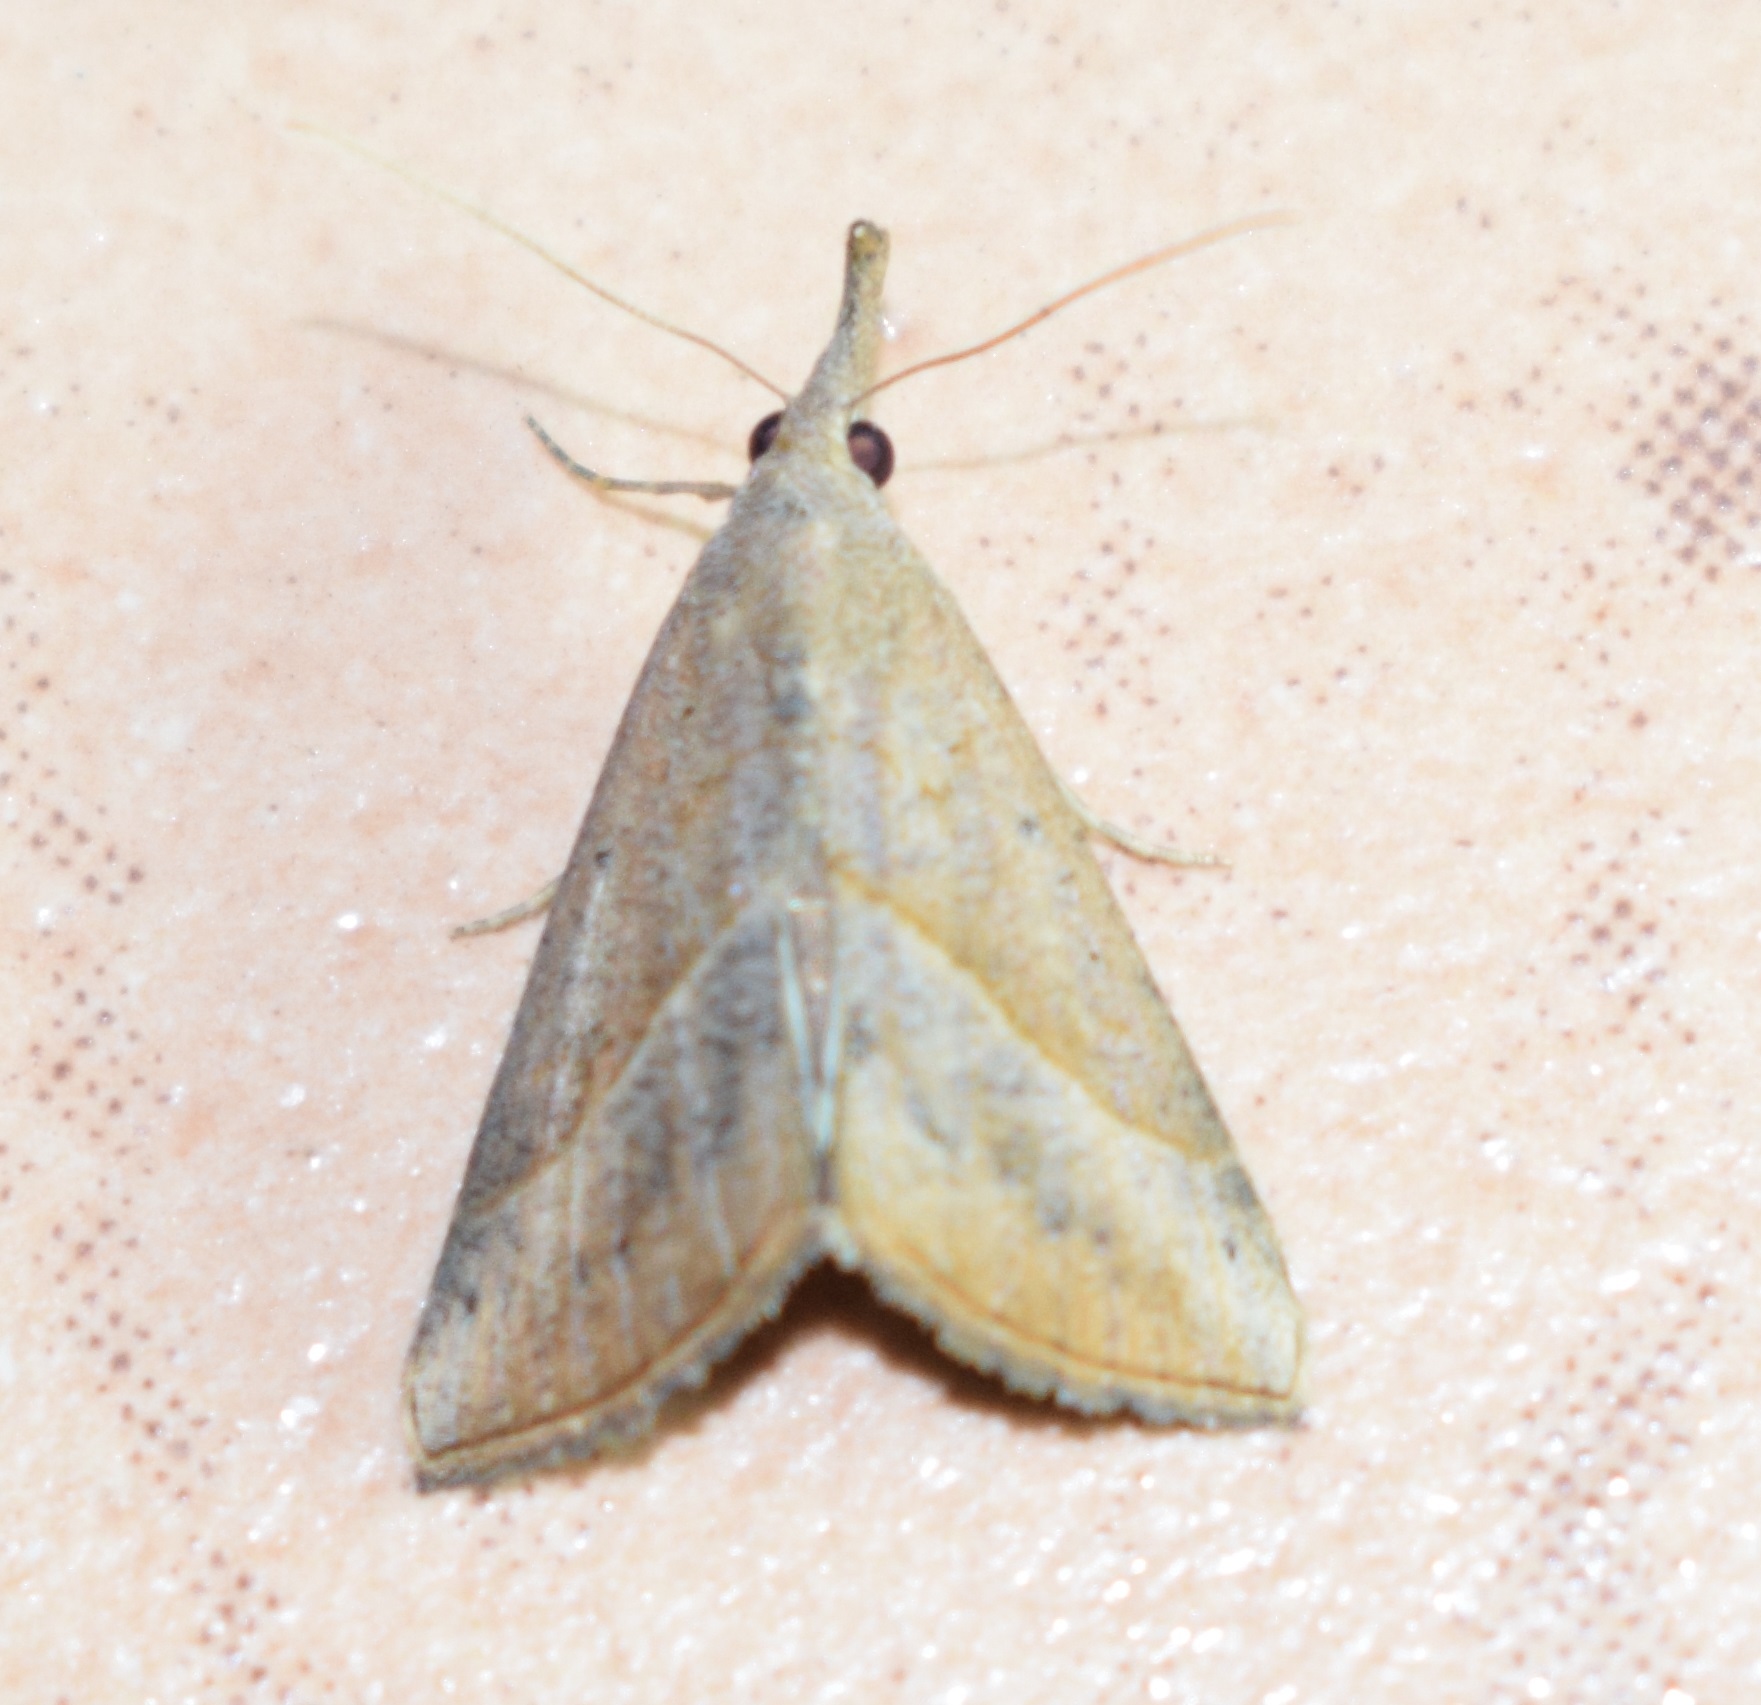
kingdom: Animalia
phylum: Arthropoda
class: Insecta
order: Lepidoptera
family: Erebidae
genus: Hypena
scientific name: Hypena lividalis
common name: Chevron snout
